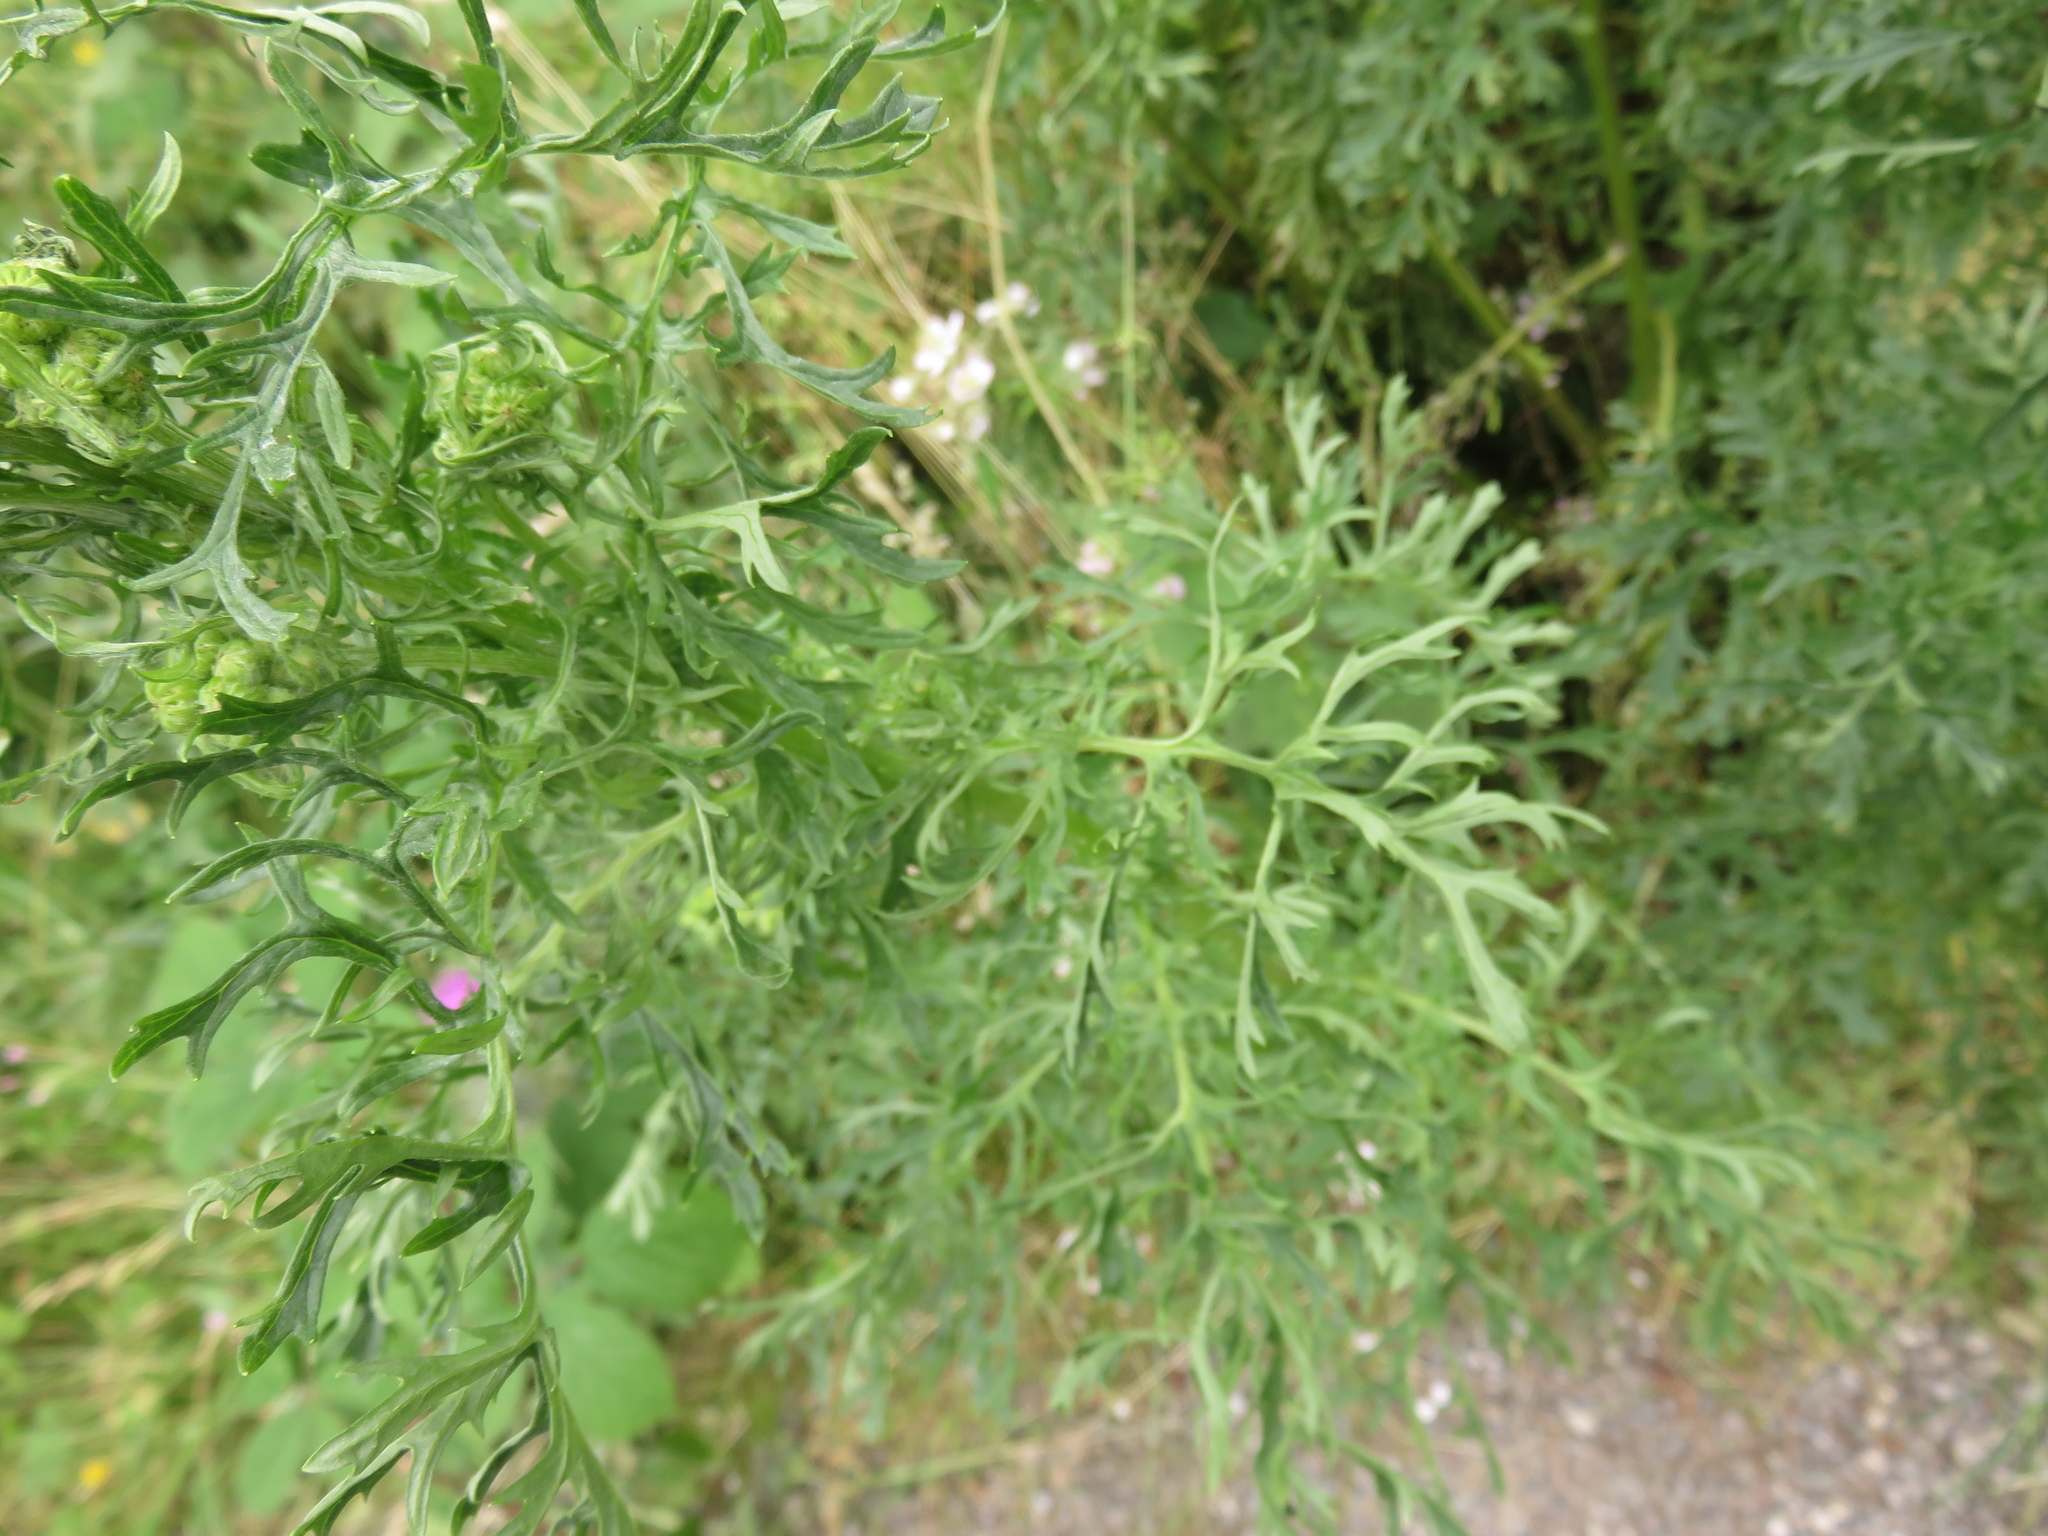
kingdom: Plantae
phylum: Tracheophyta
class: Magnoliopsida
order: Asterales
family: Asteraceae
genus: Jacobaea
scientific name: Jacobaea vulgaris
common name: Stinking willie
